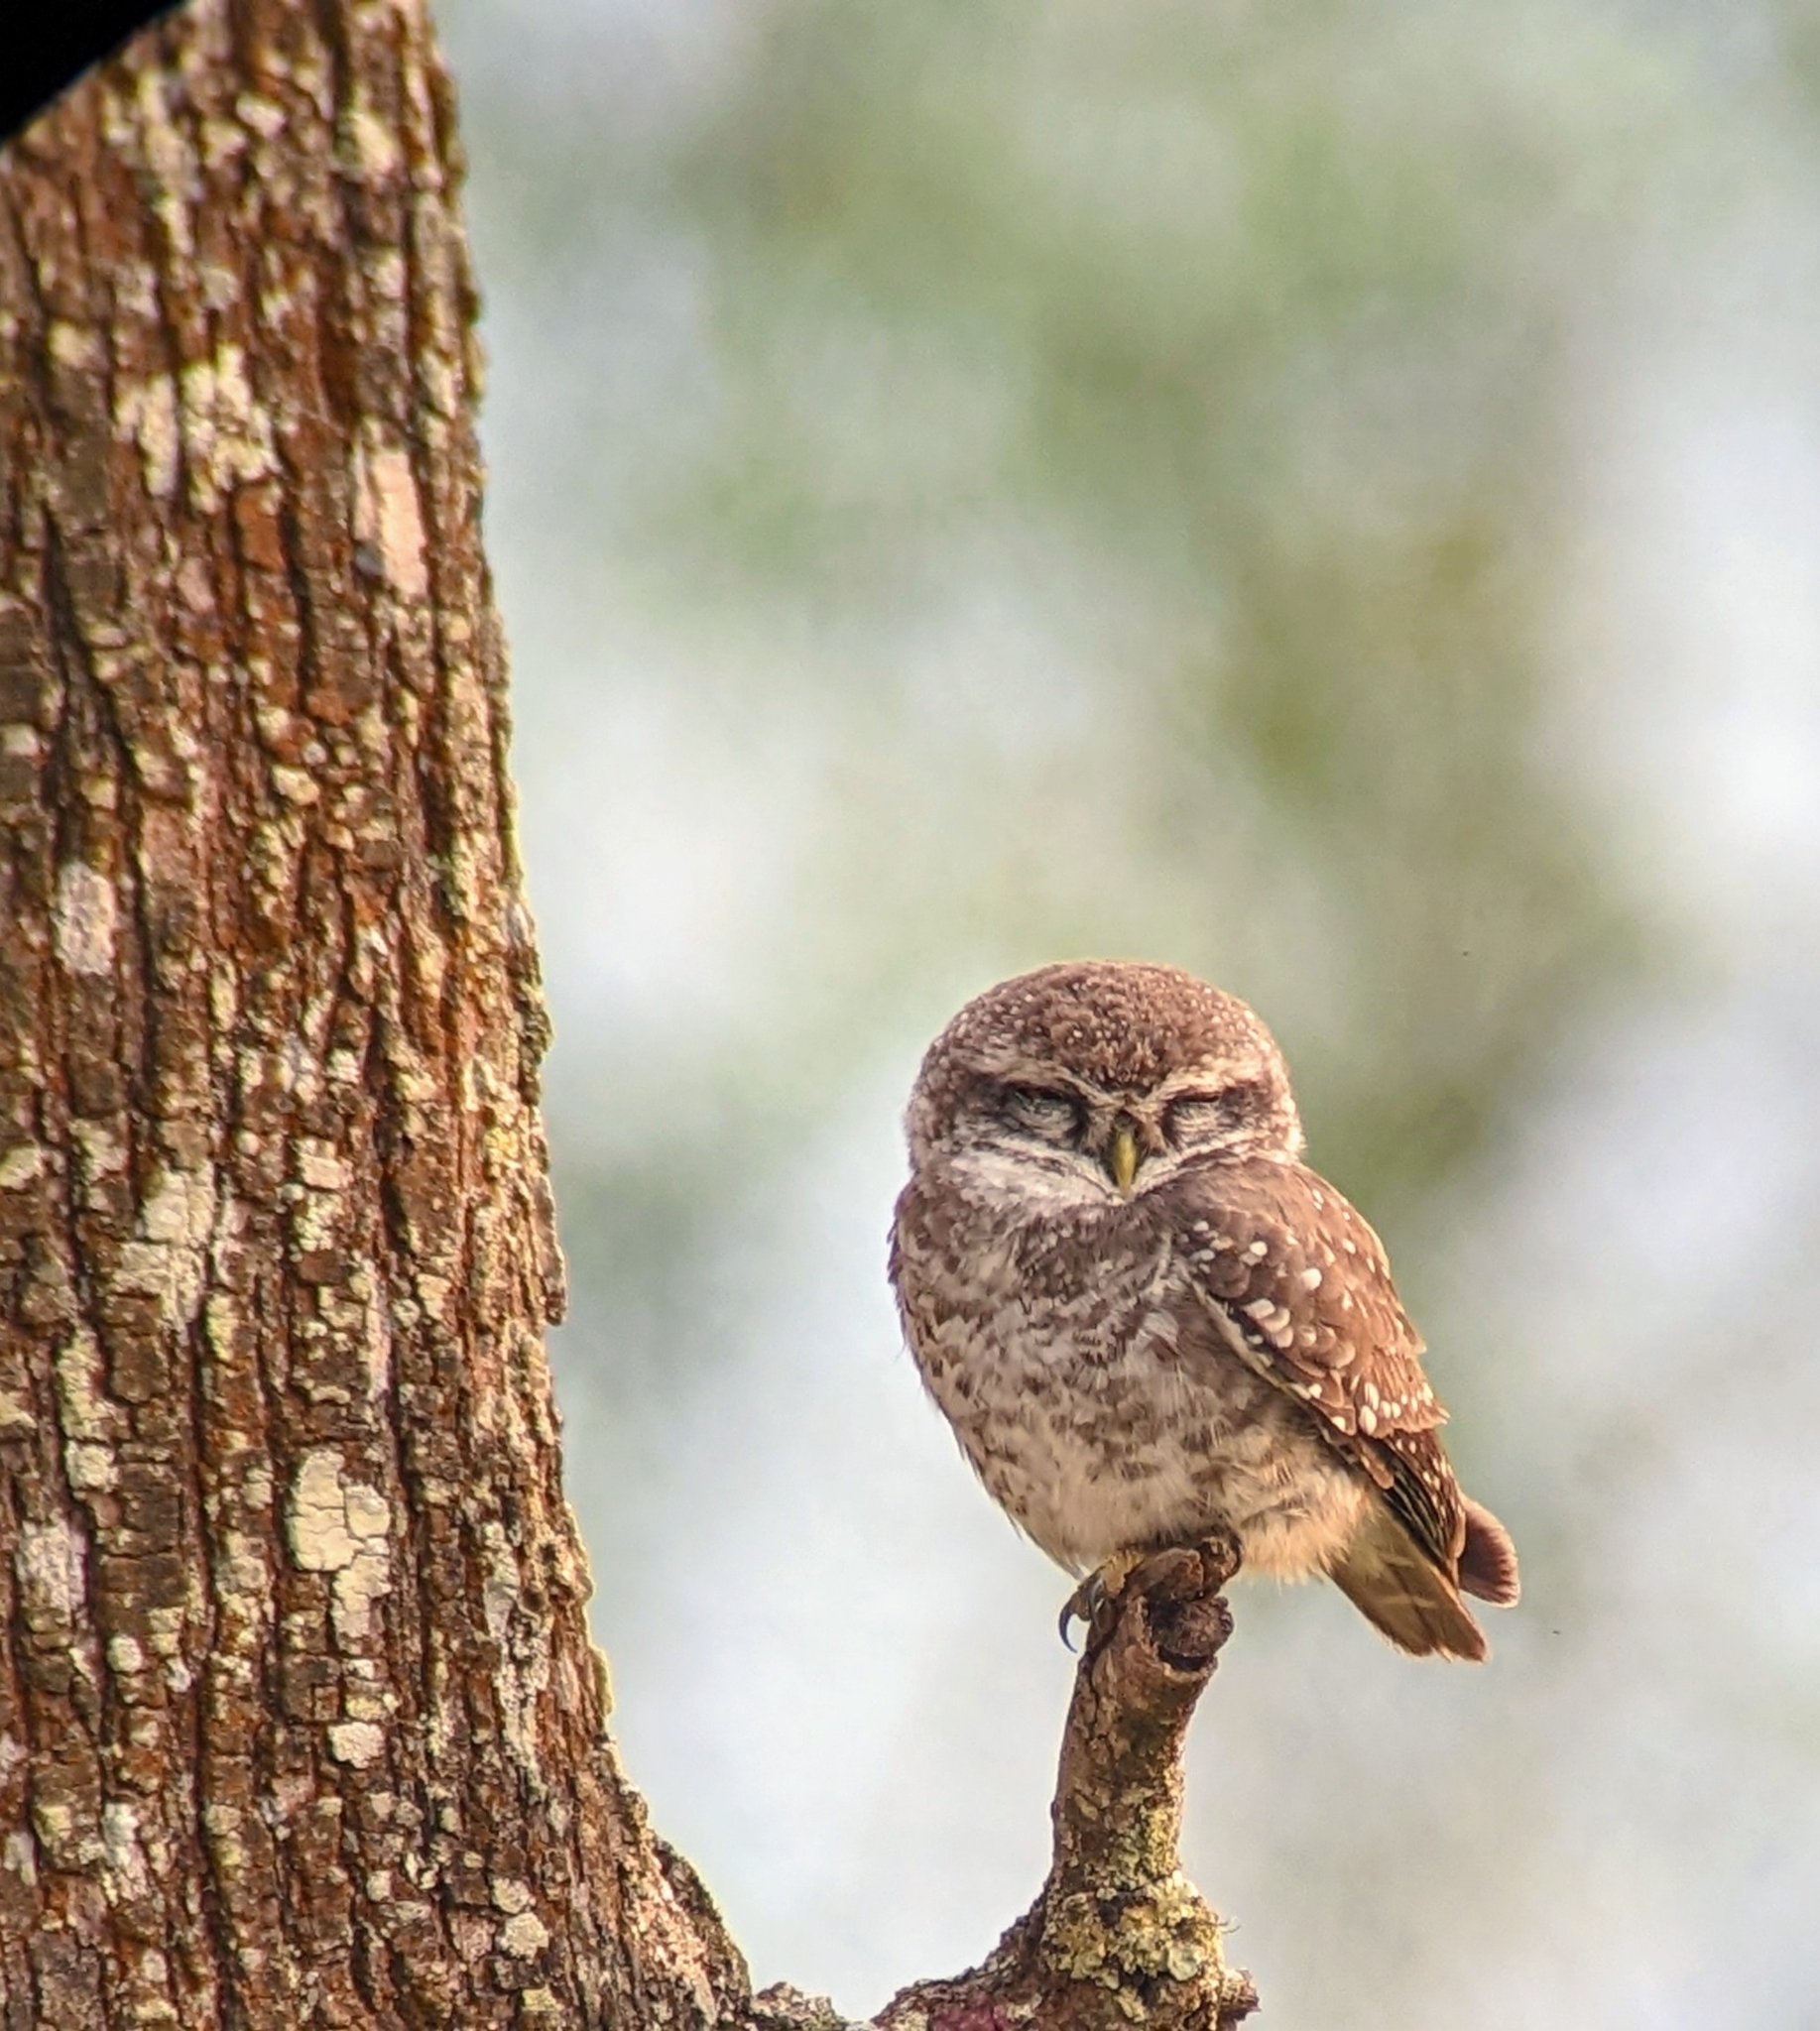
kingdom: Animalia
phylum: Chordata
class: Aves
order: Strigiformes
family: Strigidae
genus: Athene
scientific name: Athene brama
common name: Spotted owlet
